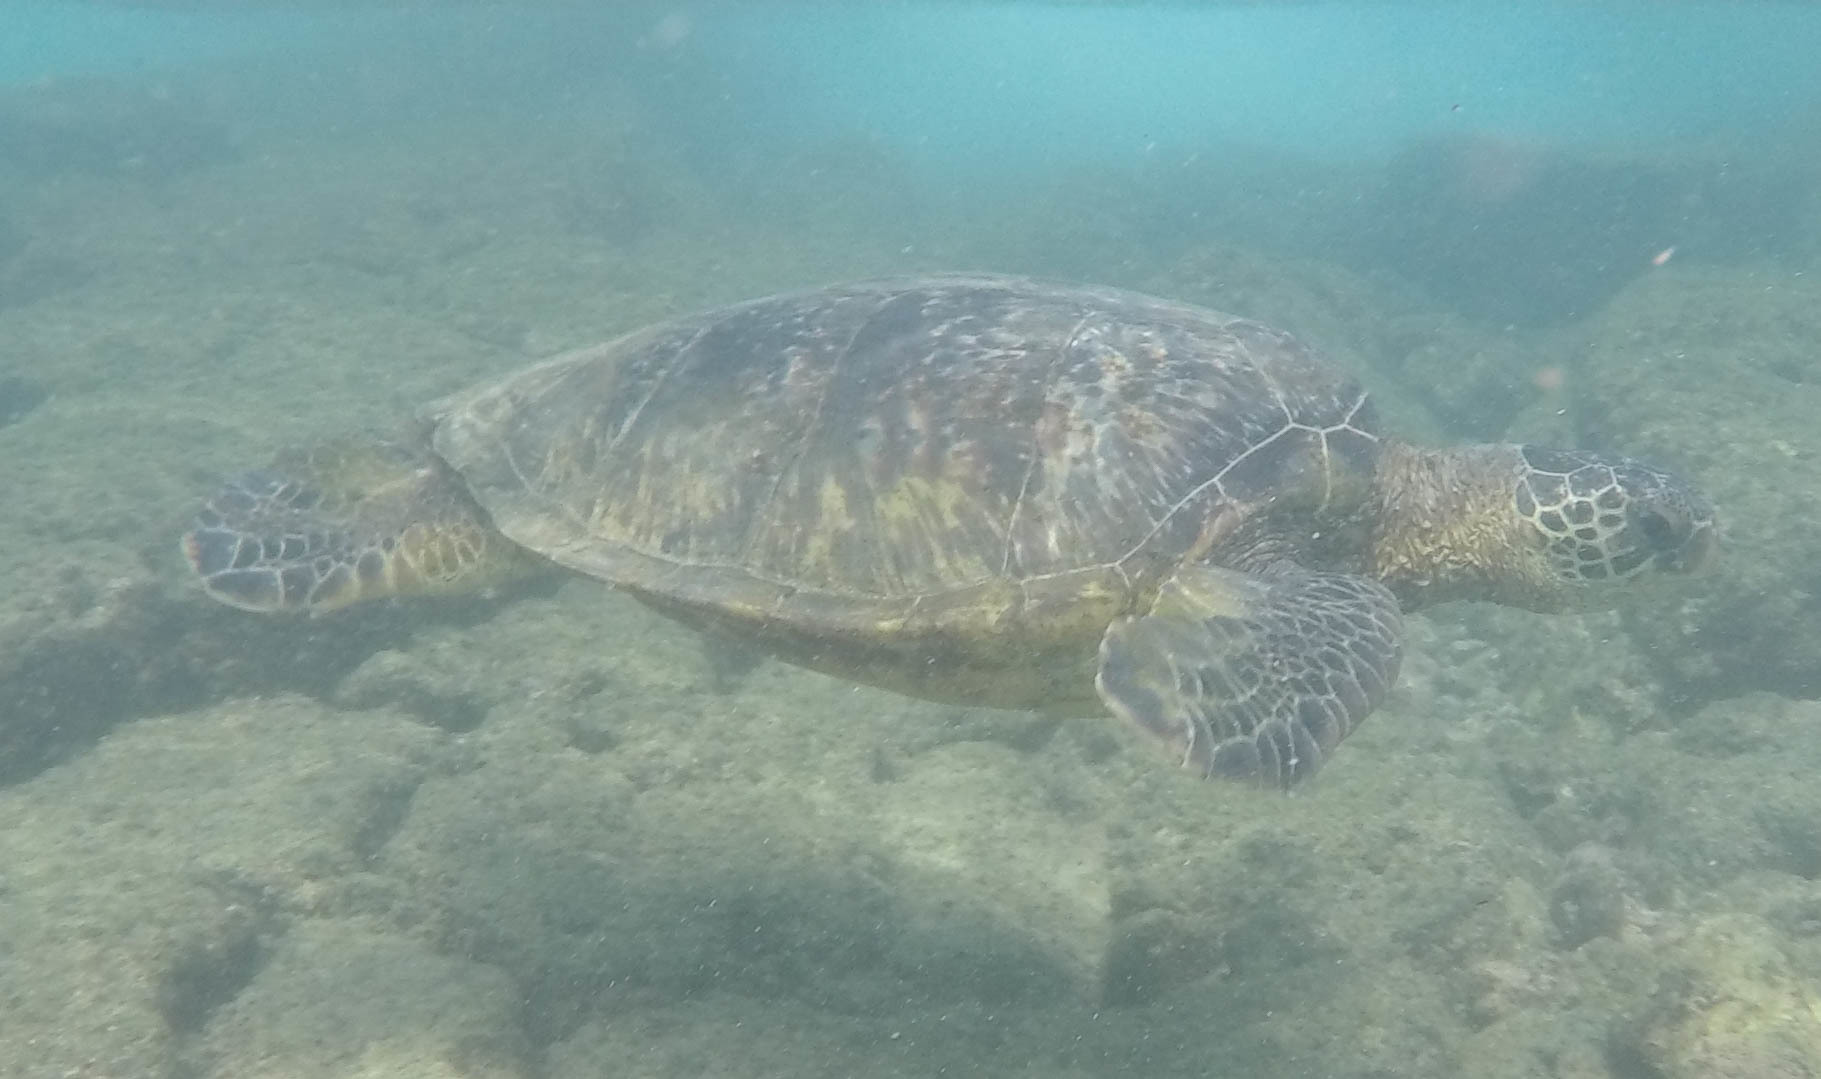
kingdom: Animalia
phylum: Chordata
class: Testudines
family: Cheloniidae
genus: Chelonia
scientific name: Chelonia mydas
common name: Green turtle
